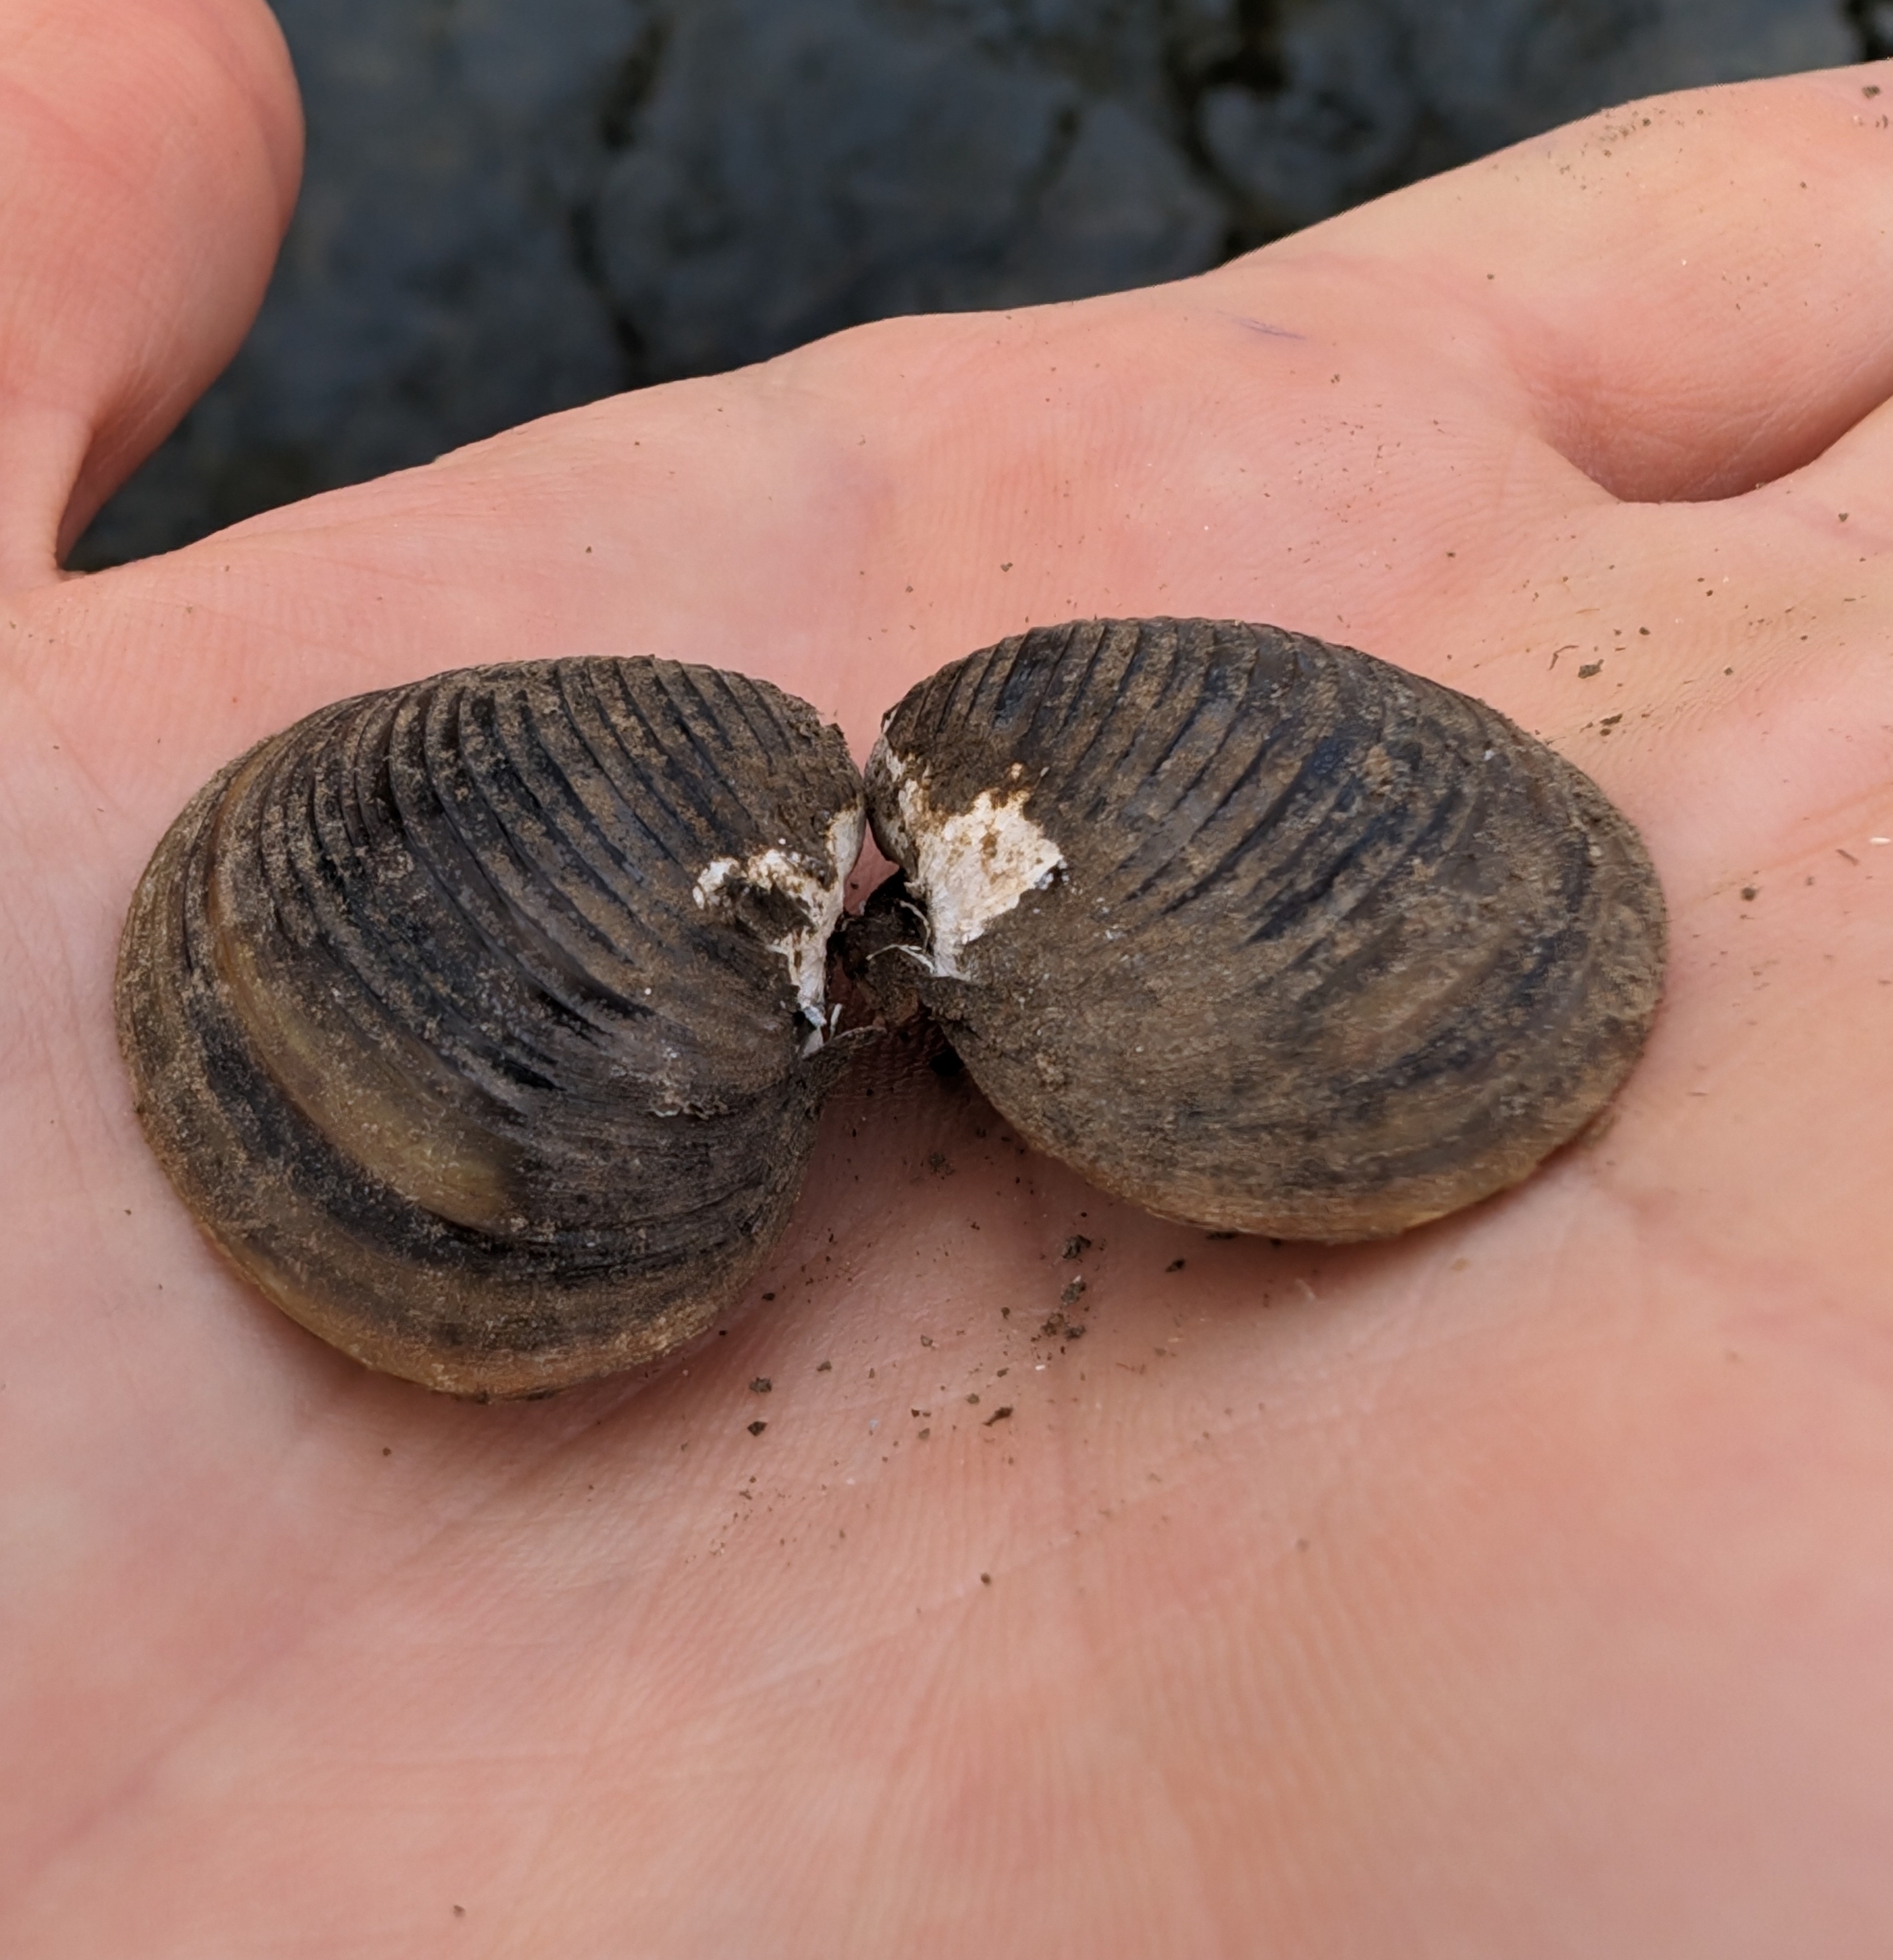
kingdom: Animalia
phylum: Mollusca
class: Bivalvia
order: Venerida
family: Cyrenidae
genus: Corbicula
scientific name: Corbicula fluminea
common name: Asian clam
